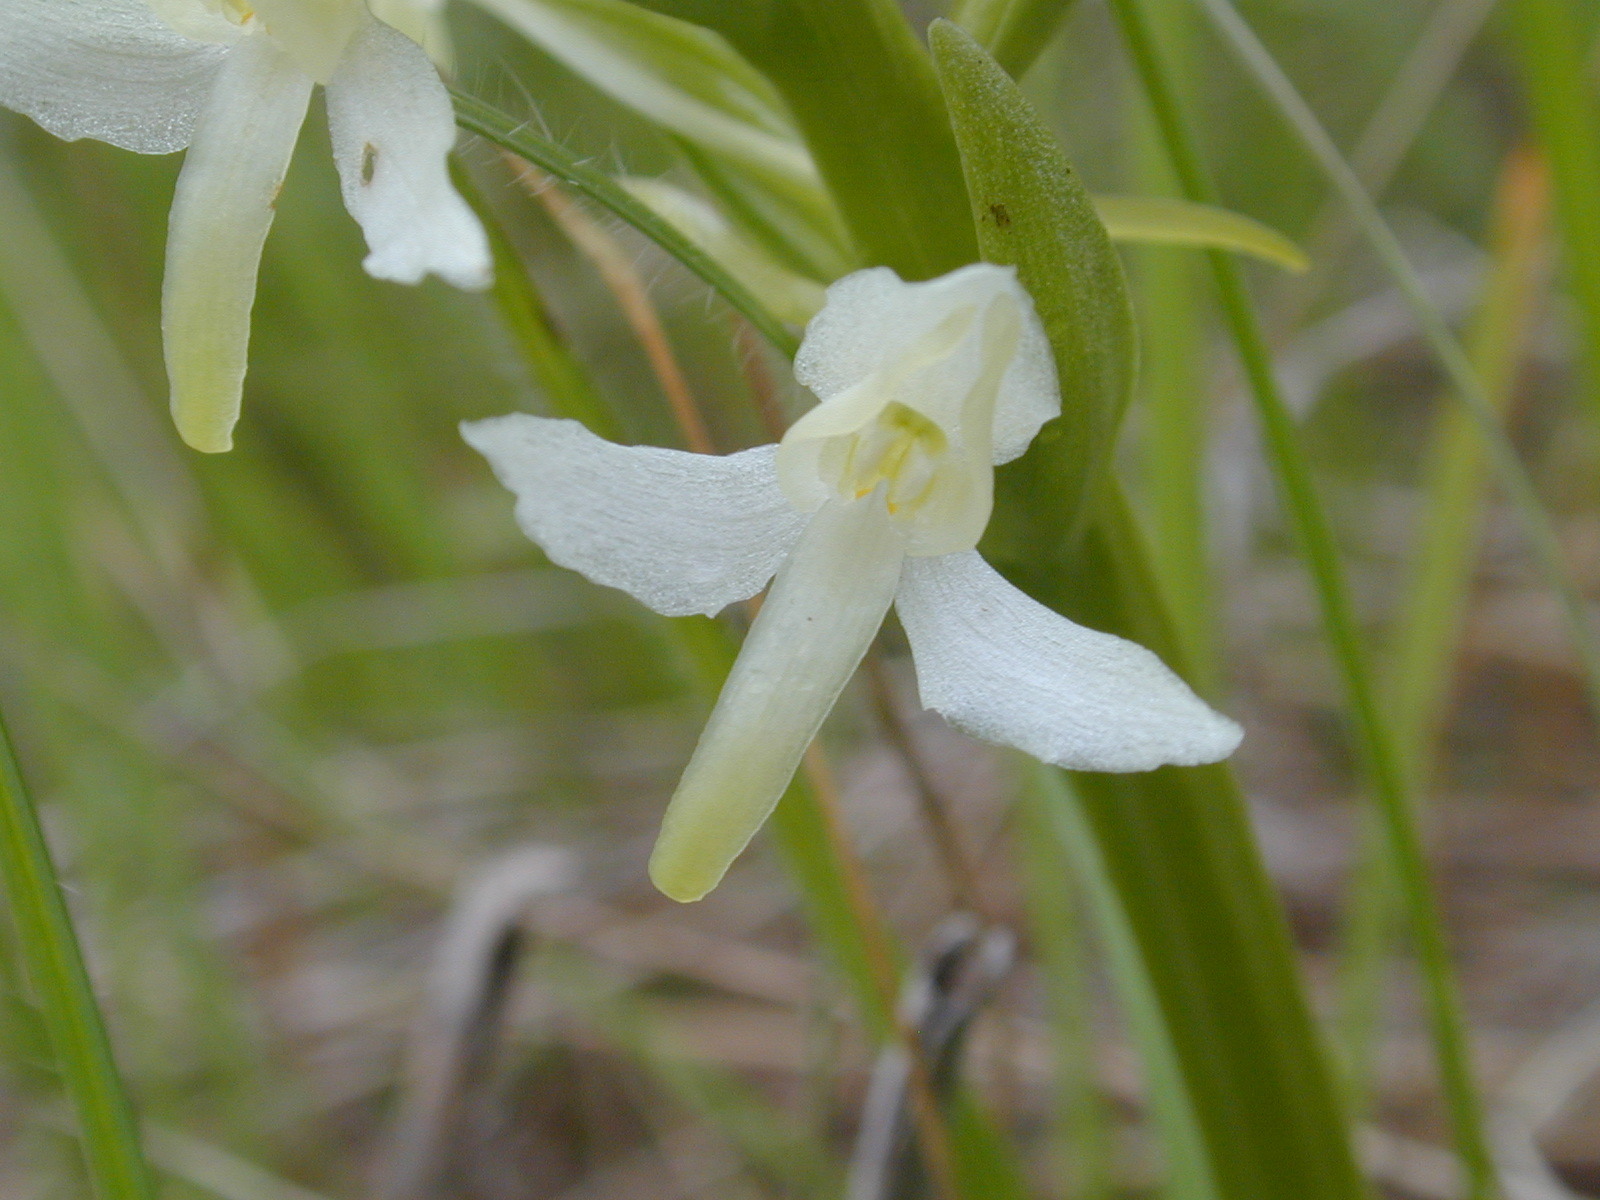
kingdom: Plantae
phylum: Tracheophyta
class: Liliopsida
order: Asparagales
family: Orchidaceae
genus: Platanthera
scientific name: Platanthera bifolia
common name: Lesser butterfly-orchid
